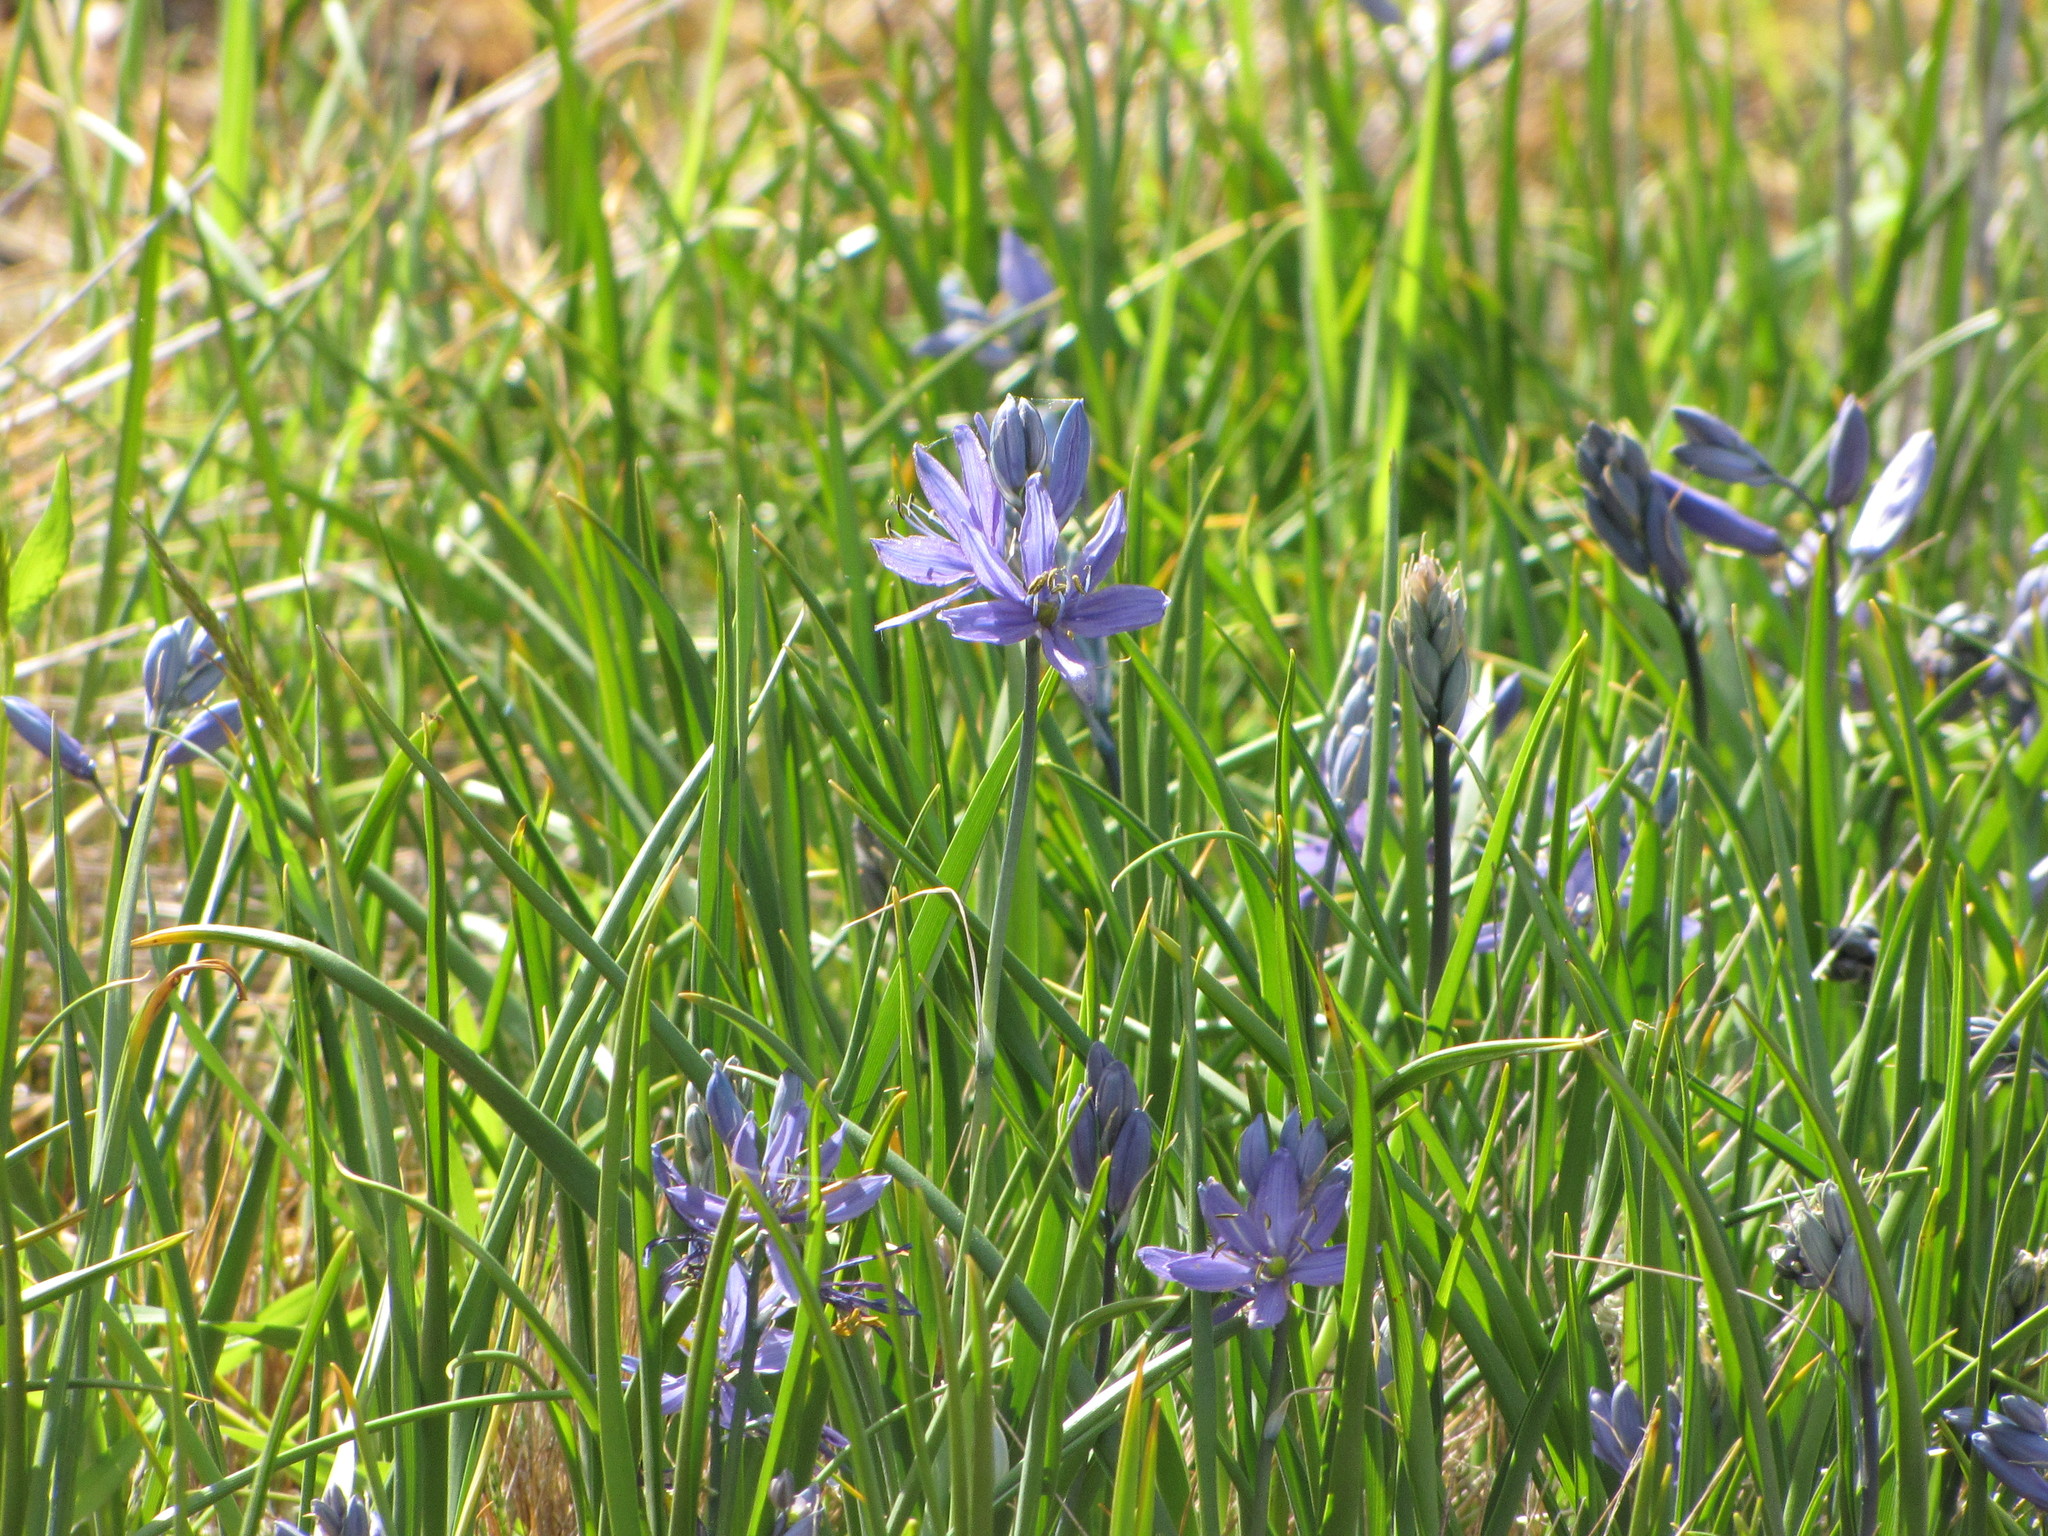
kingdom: Plantae
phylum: Tracheophyta
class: Liliopsida
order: Asparagales
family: Asparagaceae
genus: Camassia
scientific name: Camassia quamash
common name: Common camas
